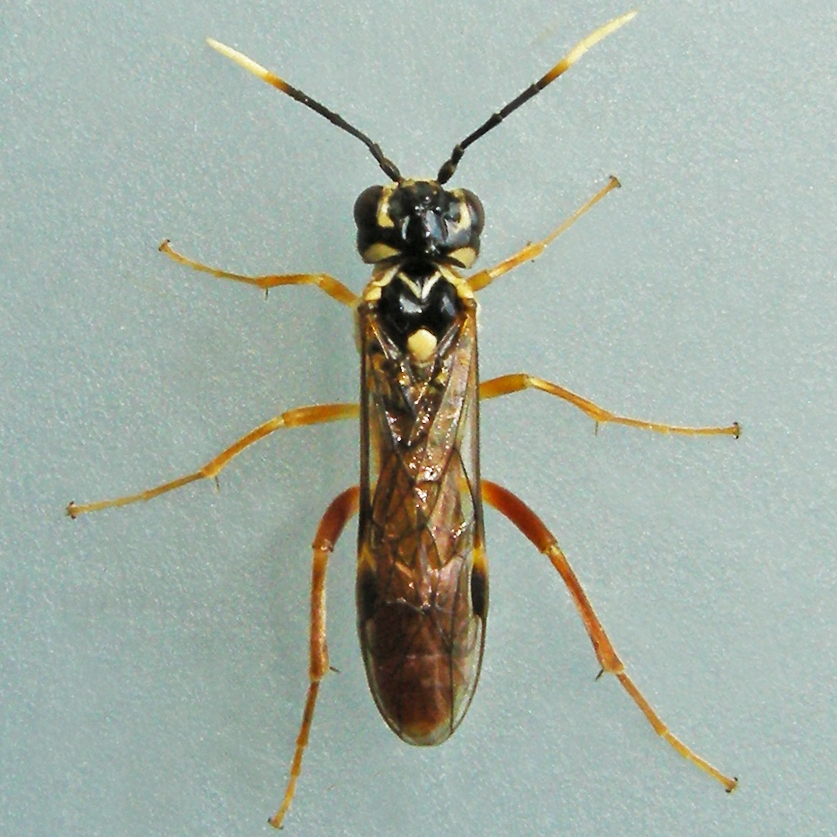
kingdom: Animalia
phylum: Arthropoda
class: Insecta
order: Hymenoptera
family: Tenthredinidae
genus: Taxonus
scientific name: Taxonus pallidicornis
